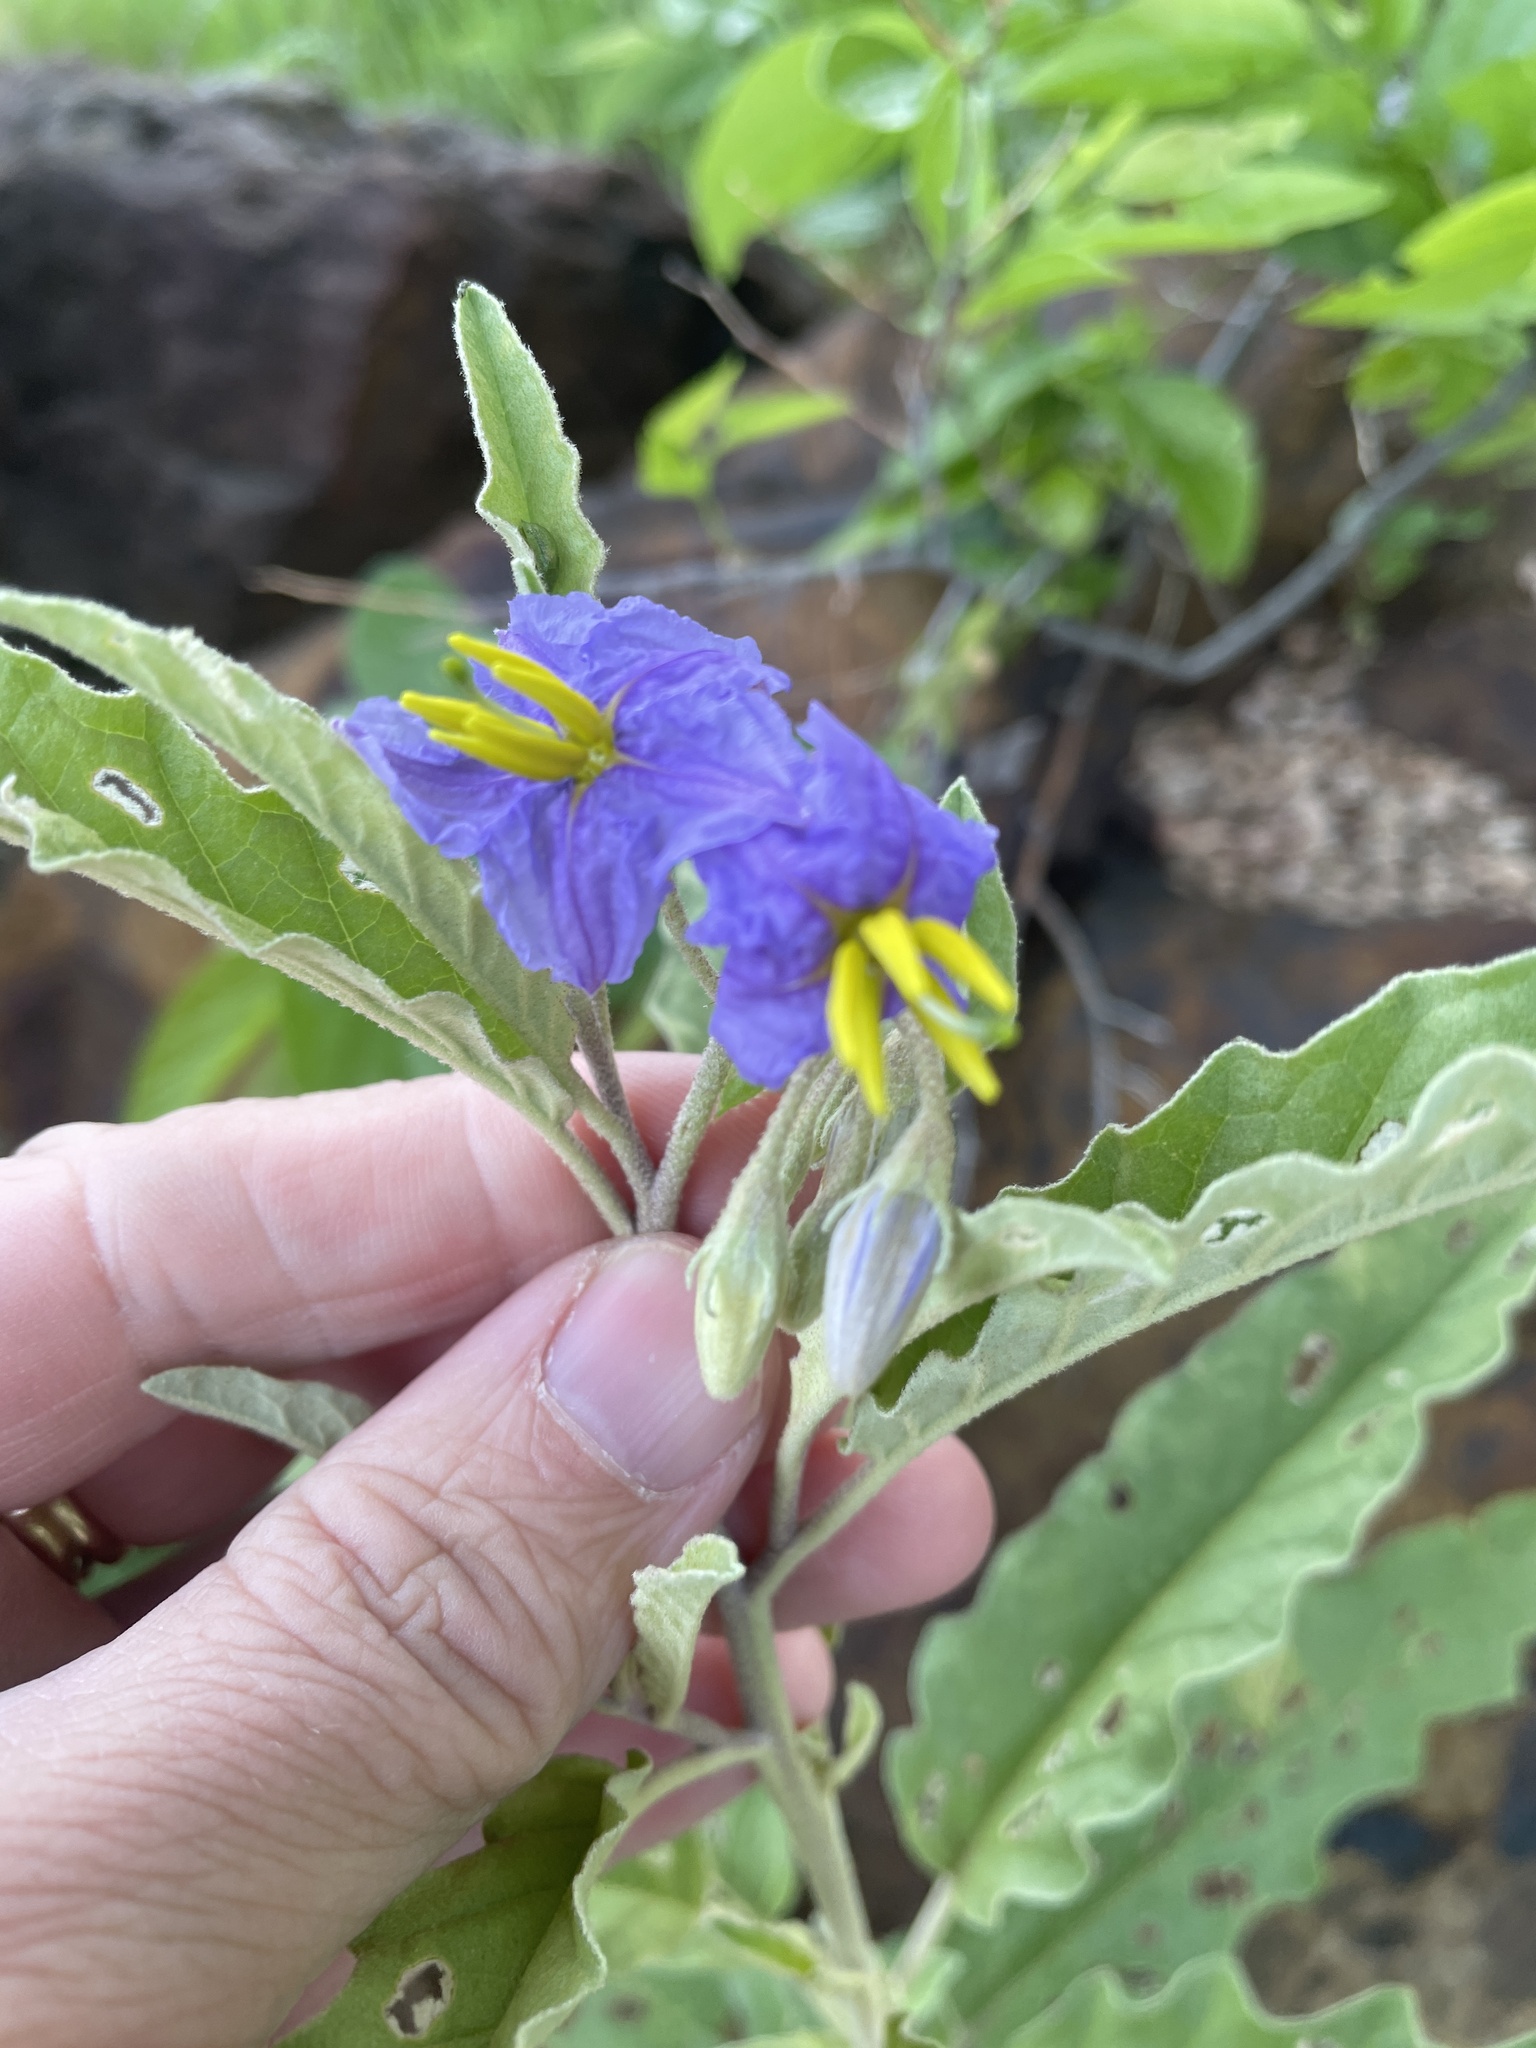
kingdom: Plantae
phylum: Tracheophyta
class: Magnoliopsida
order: Solanales
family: Solanaceae
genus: Solanum
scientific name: Solanum elaeagnifolium
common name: Silverleaf nightshade
